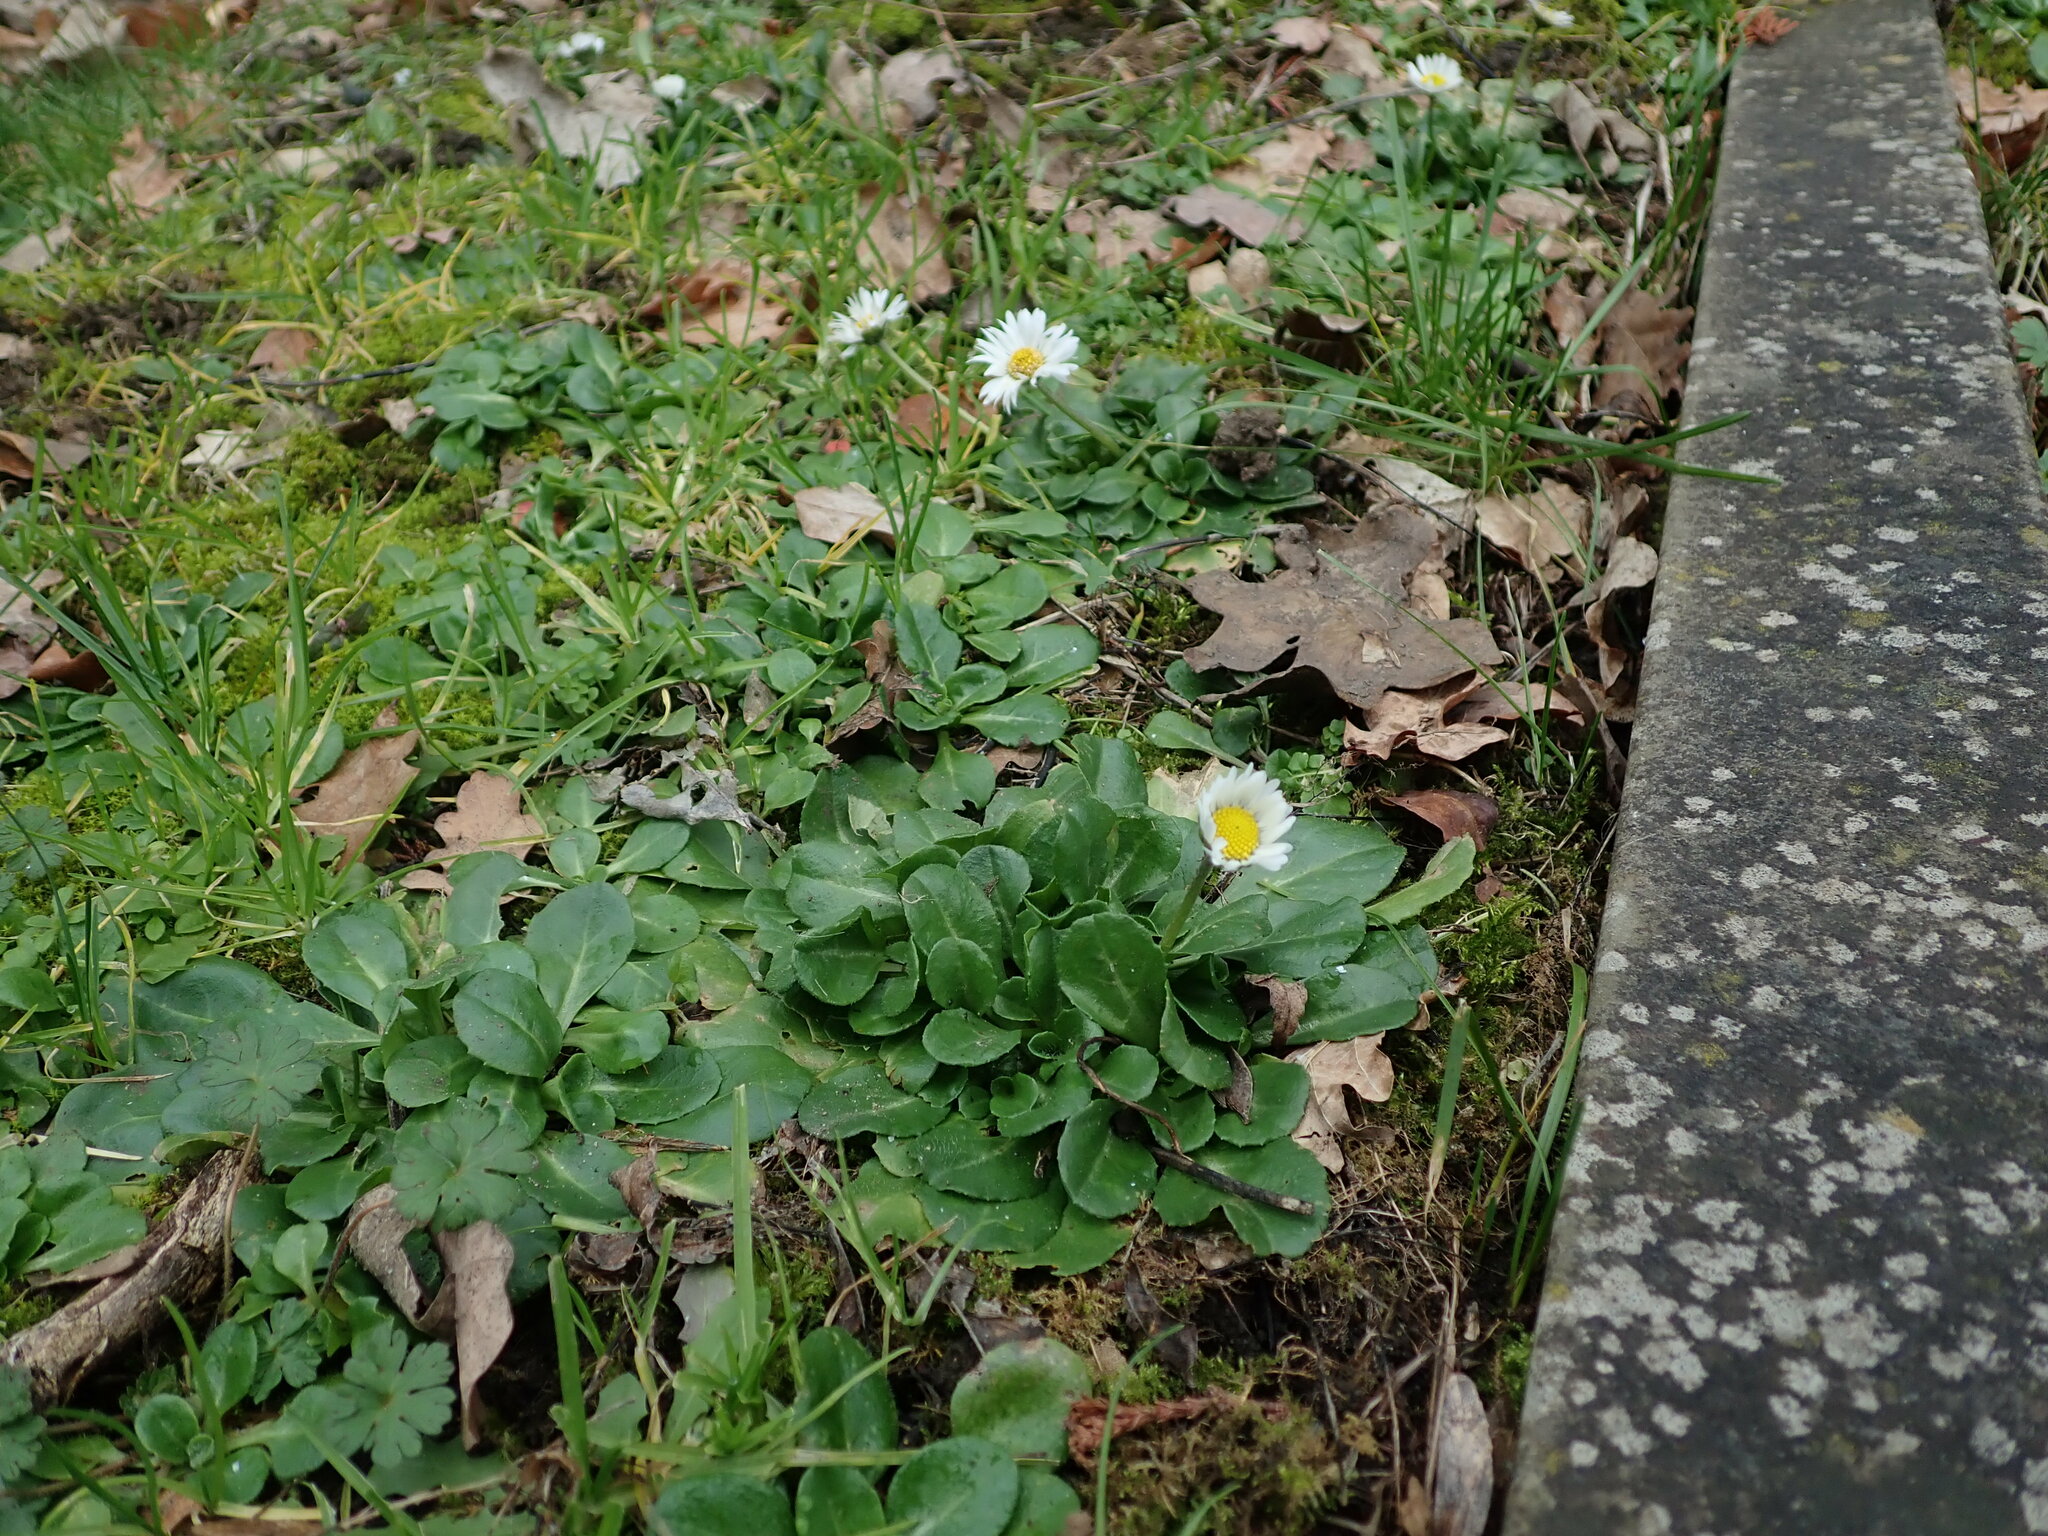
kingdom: Plantae
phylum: Tracheophyta
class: Magnoliopsida
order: Asterales
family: Asteraceae
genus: Bellis
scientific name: Bellis perennis
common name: Lawndaisy
